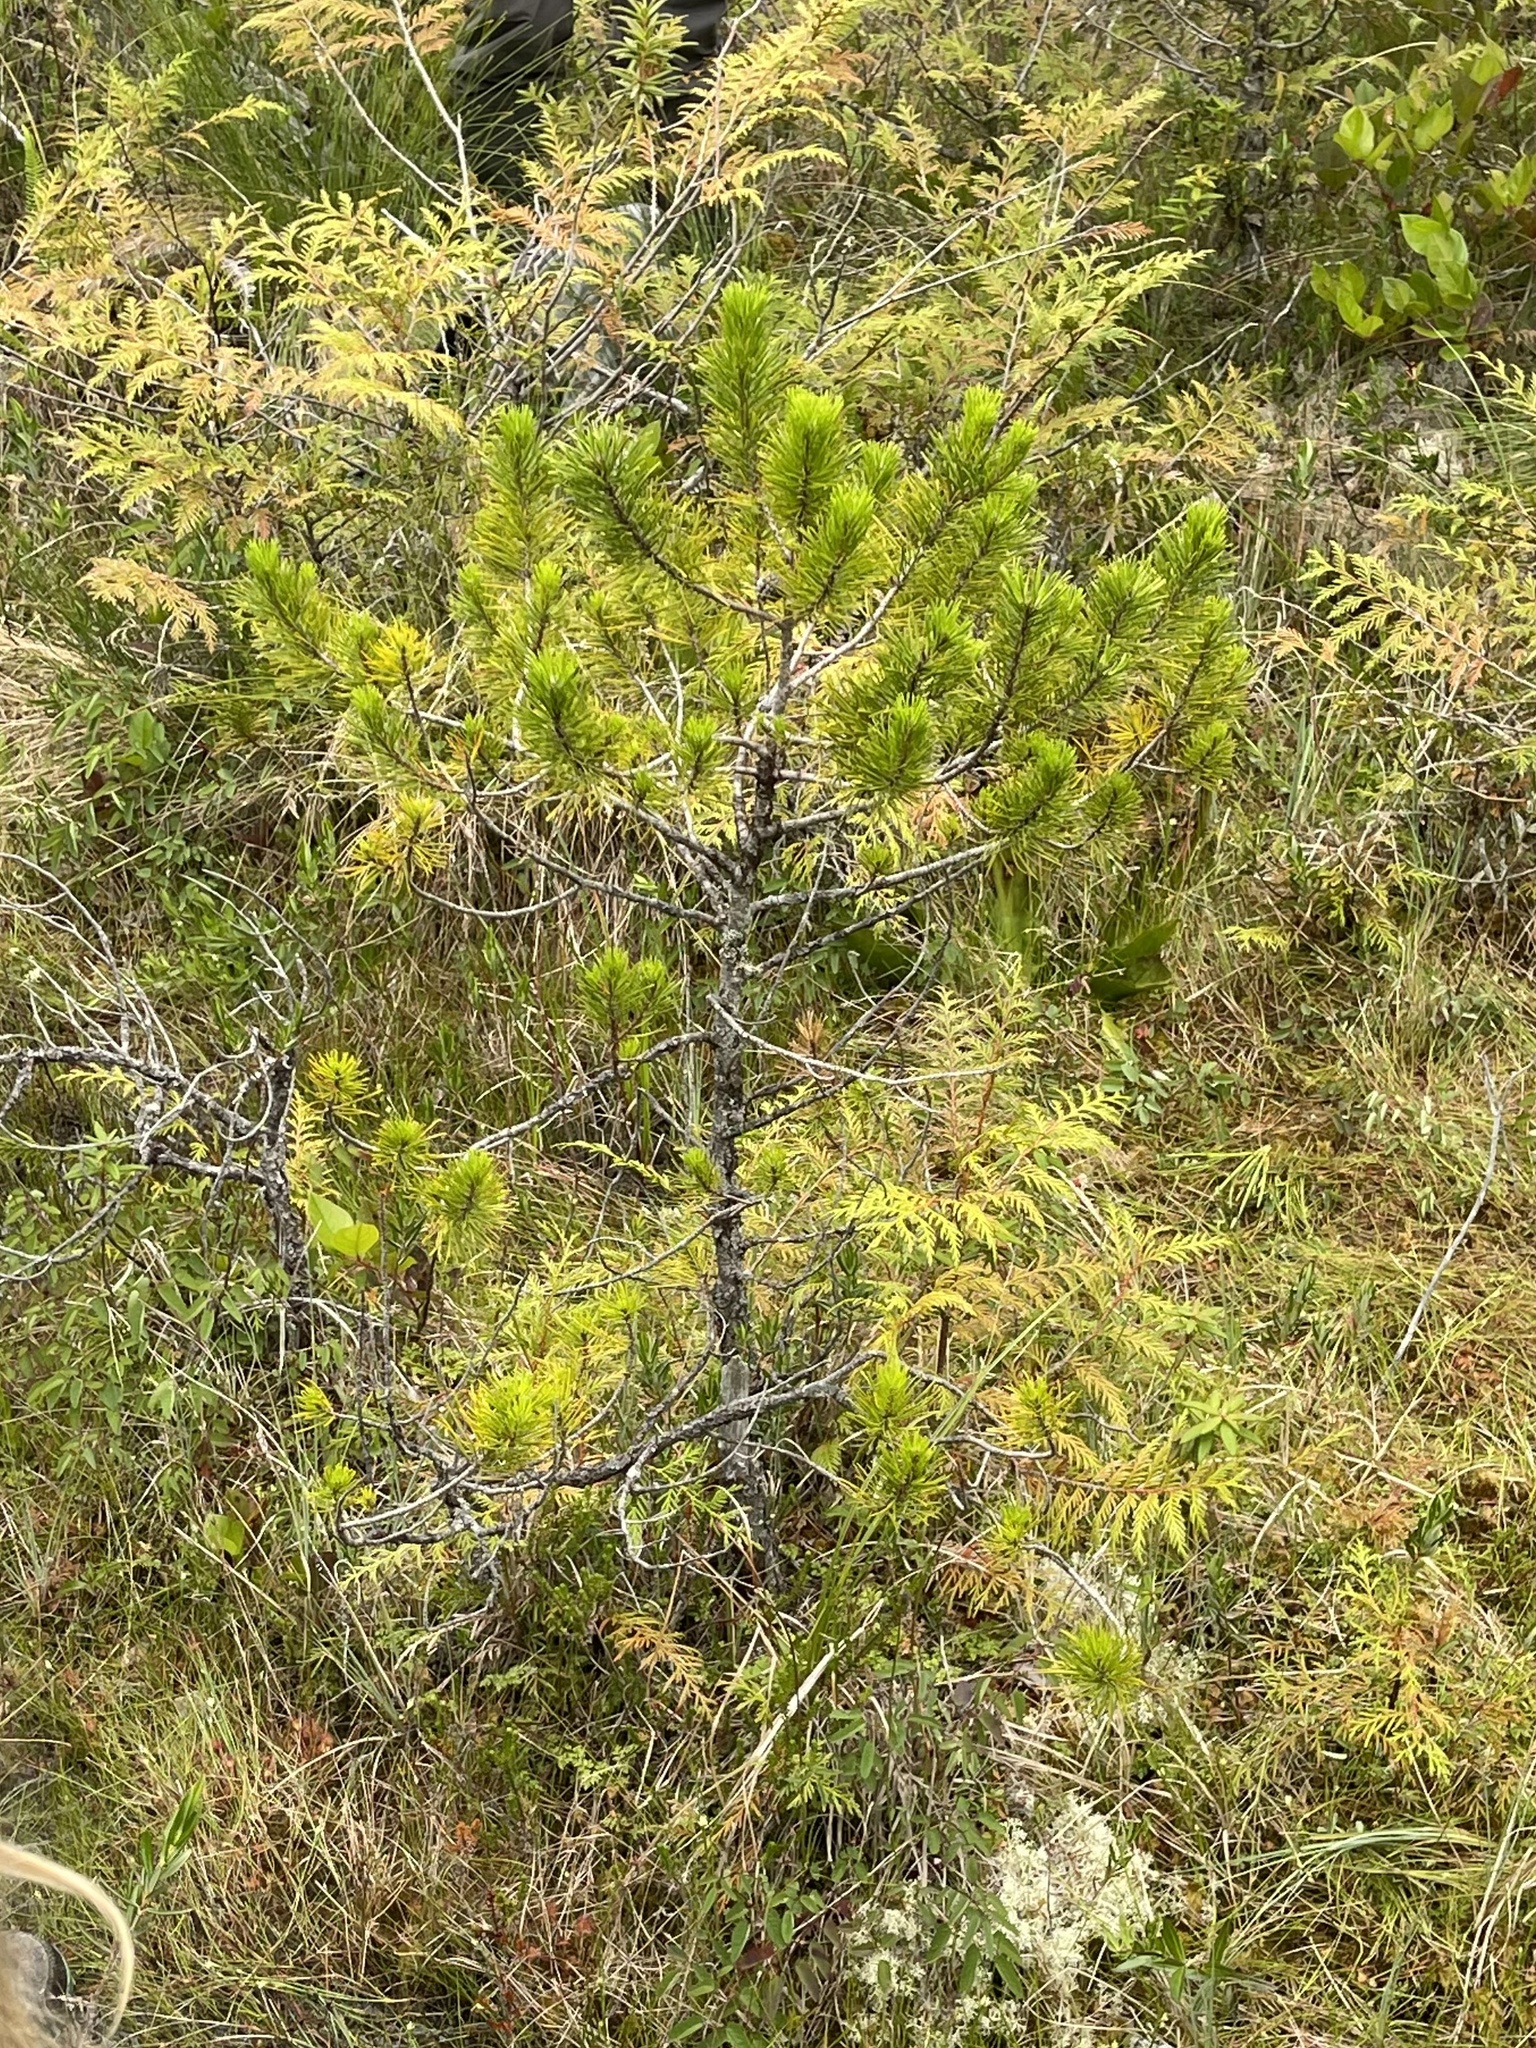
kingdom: Plantae
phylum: Tracheophyta
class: Pinopsida
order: Pinales
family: Pinaceae
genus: Pinus
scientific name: Pinus contorta
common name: Lodgepole pine
